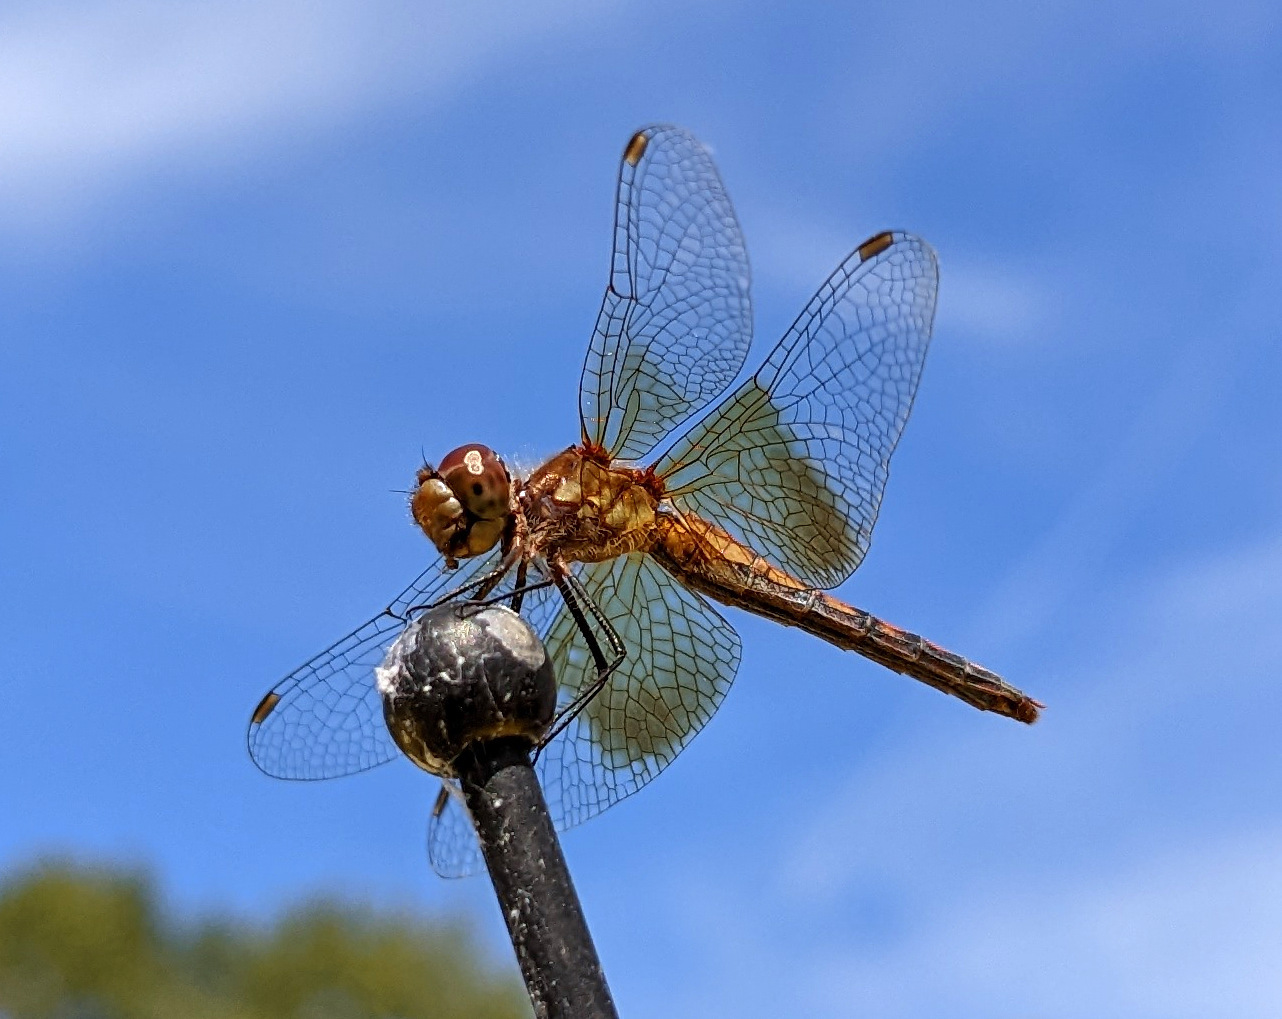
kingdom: Animalia
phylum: Arthropoda
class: Insecta
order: Odonata
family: Libellulidae
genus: Sympetrum
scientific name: Sympetrum semicinctum
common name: Band-winged meadowhawk
